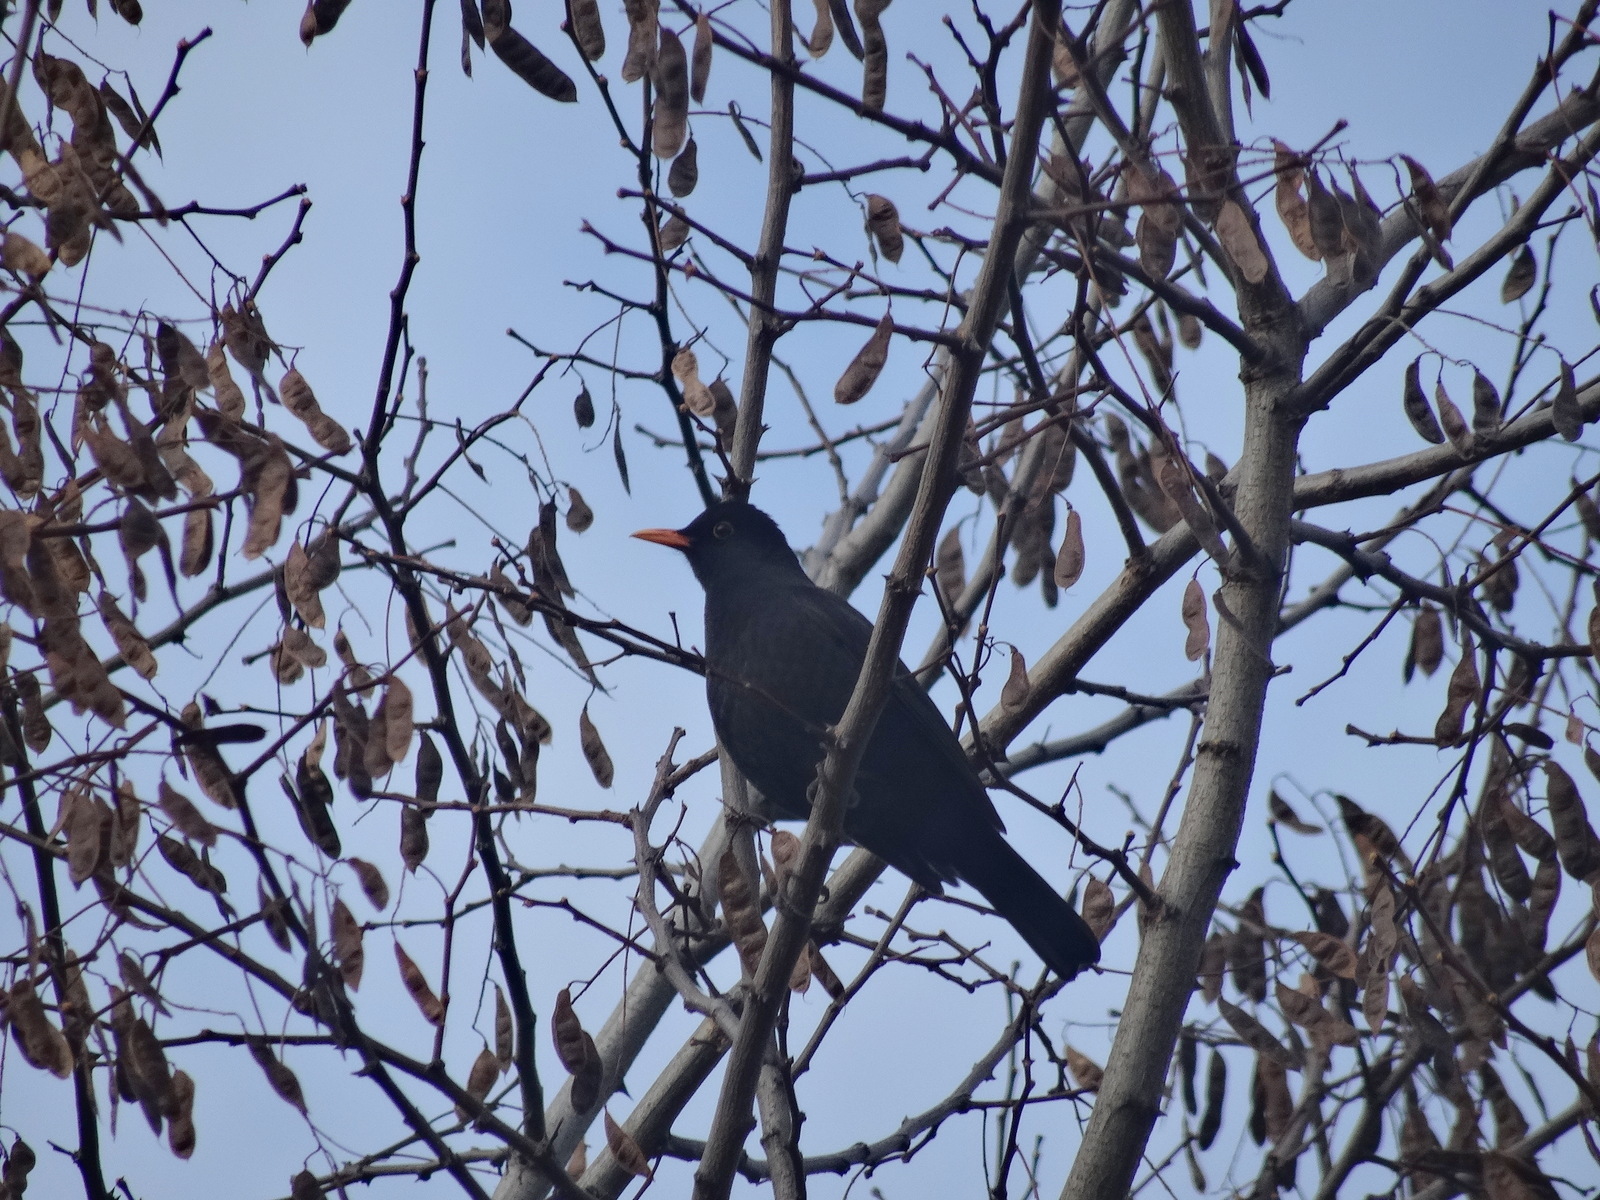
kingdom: Animalia
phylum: Chordata
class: Aves
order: Passeriformes
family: Turdidae
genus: Turdus
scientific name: Turdus merula
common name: Common blackbird
